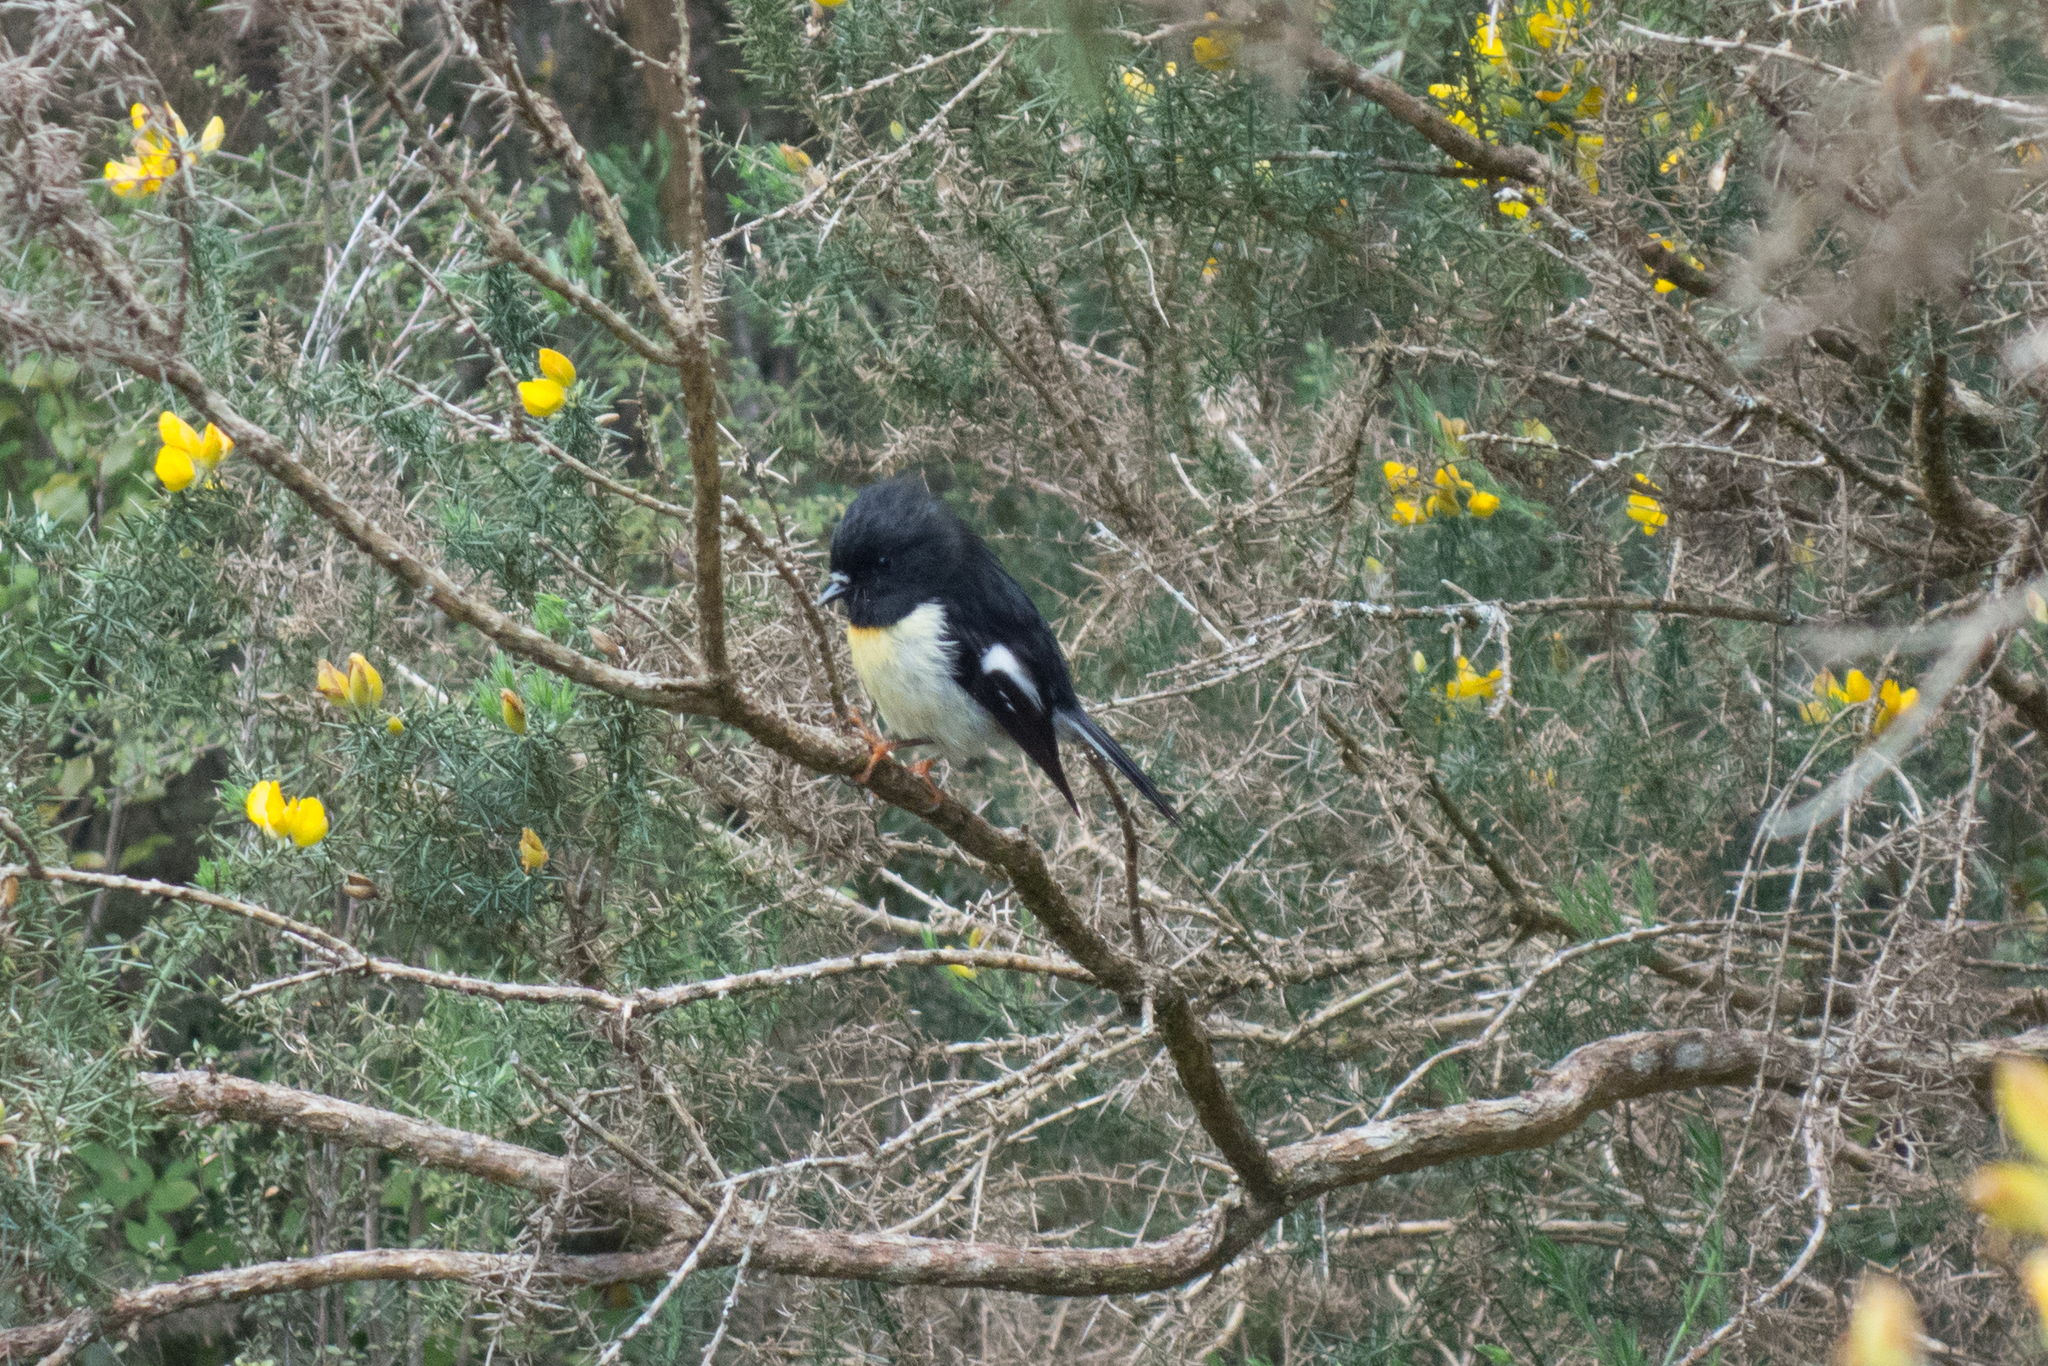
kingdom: Animalia
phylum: Chordata
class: Aves
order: Passeriformes
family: Petroicidae
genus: Petroica
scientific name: Petroica macrocephala
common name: Tomtit
